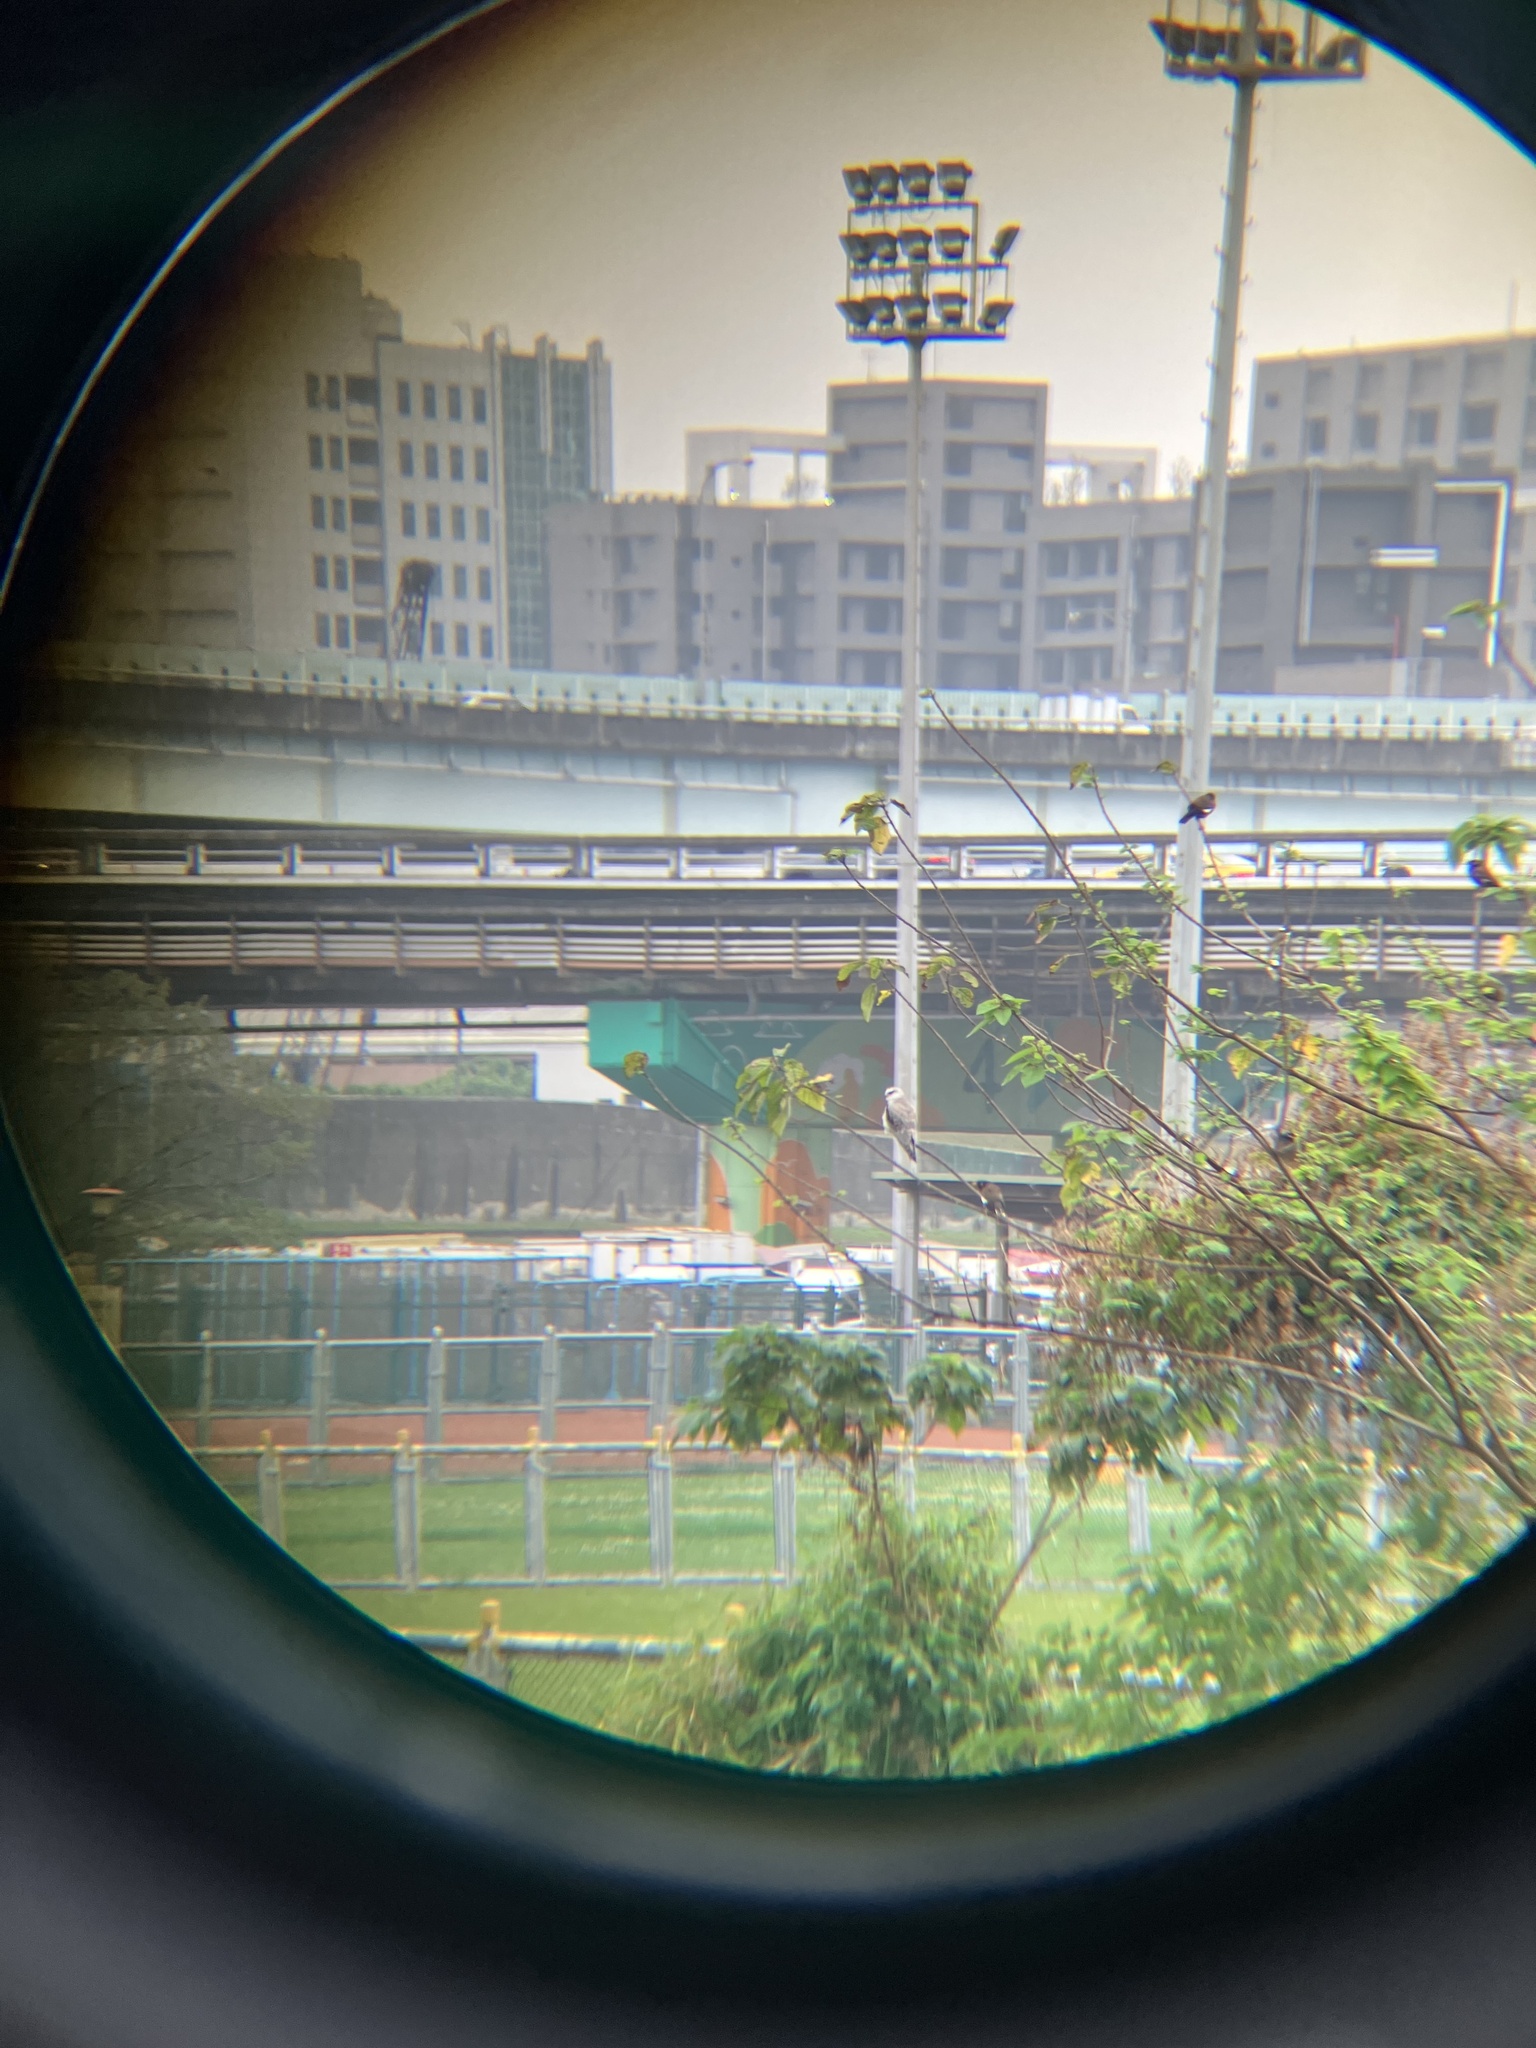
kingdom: Animalia
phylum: Chordata
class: Aves
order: Accipitriformes
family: Accipitridae
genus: Elanus
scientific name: Elanus caeruleus
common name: Black-winged kite
